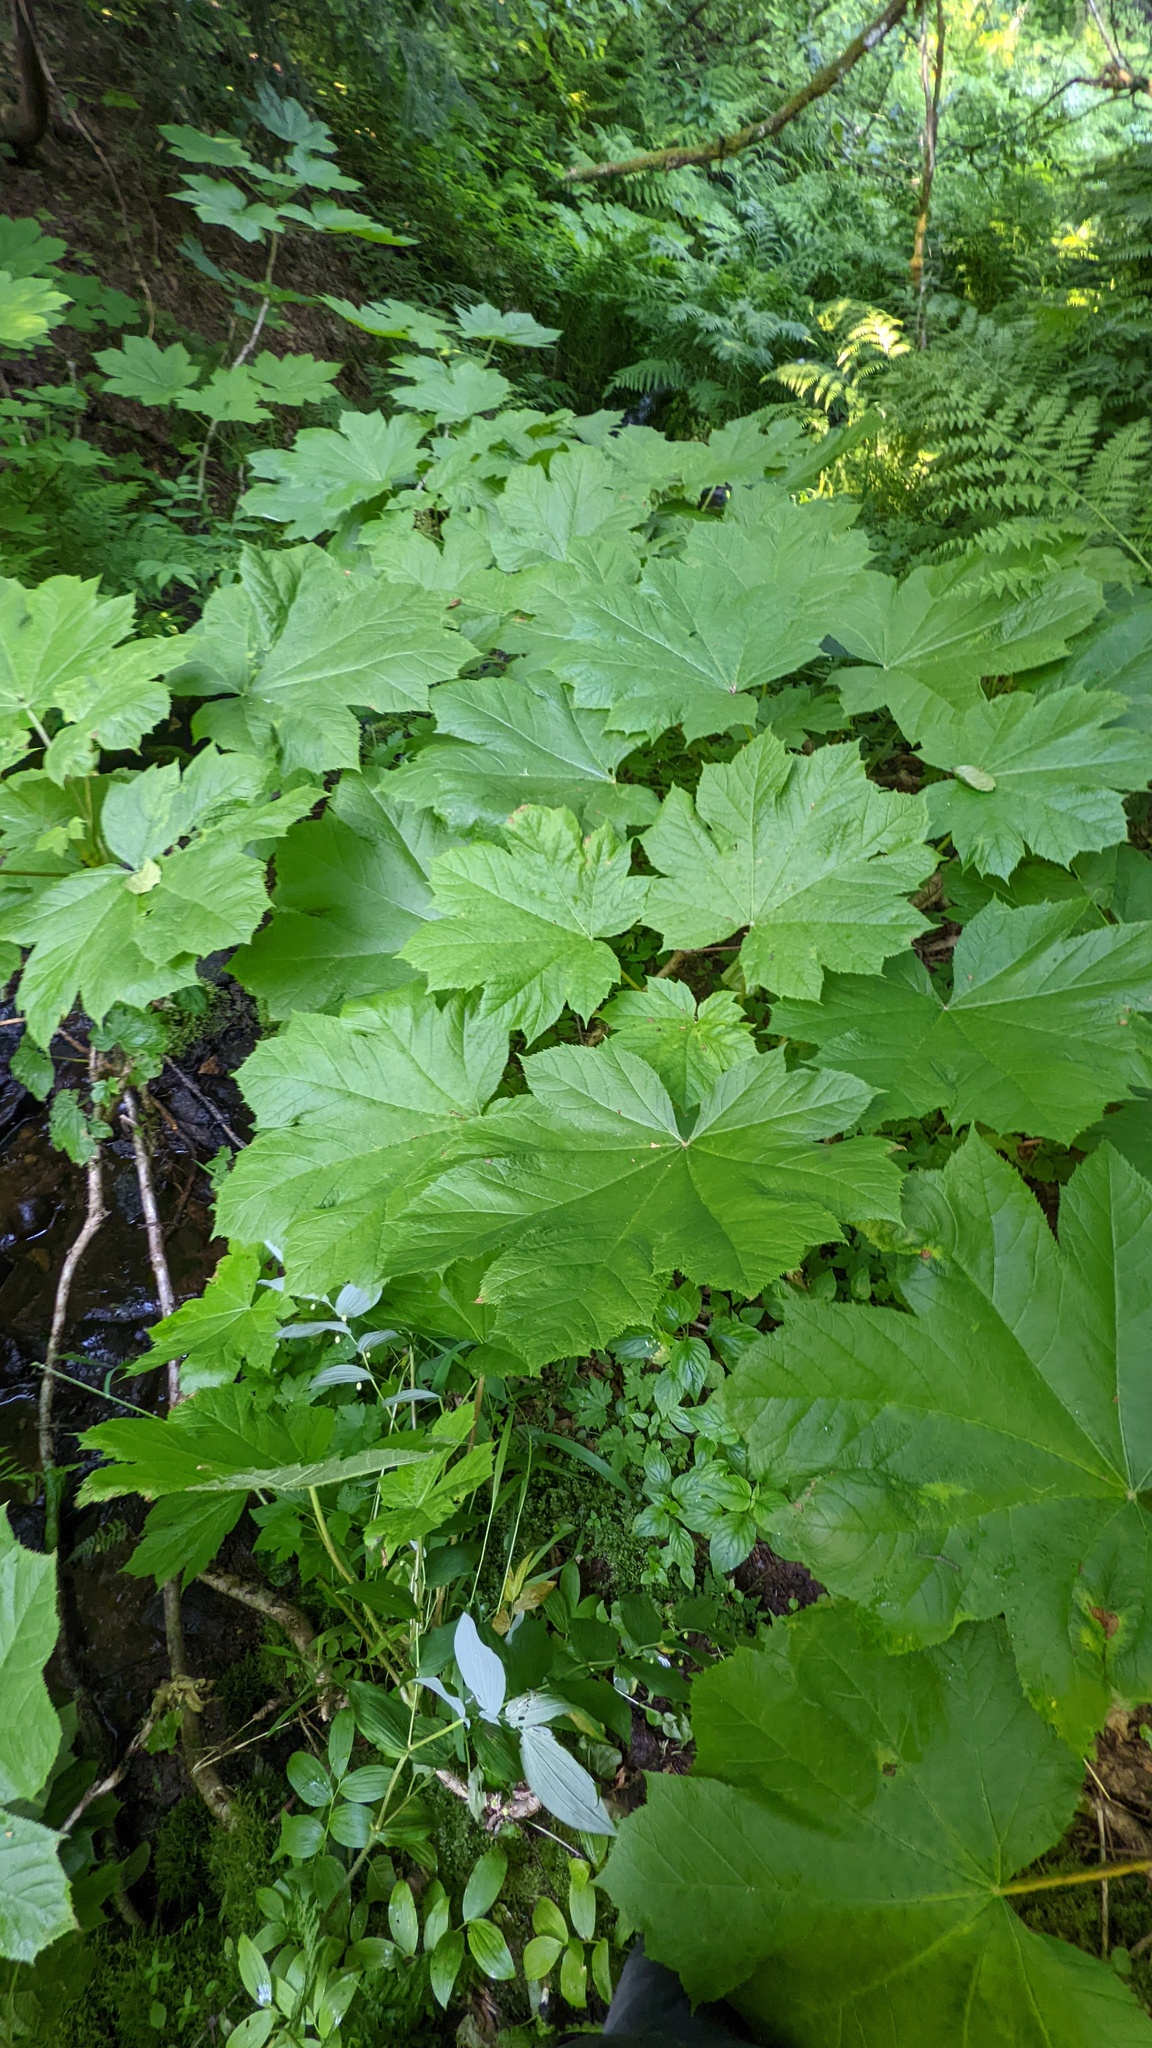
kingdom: Plantae
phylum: Tracheophyta
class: Magnoliopsida
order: Apiales
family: Araliaceae
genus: Oplopanax
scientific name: Oplopanax horridus
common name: Devil's walking-stick
